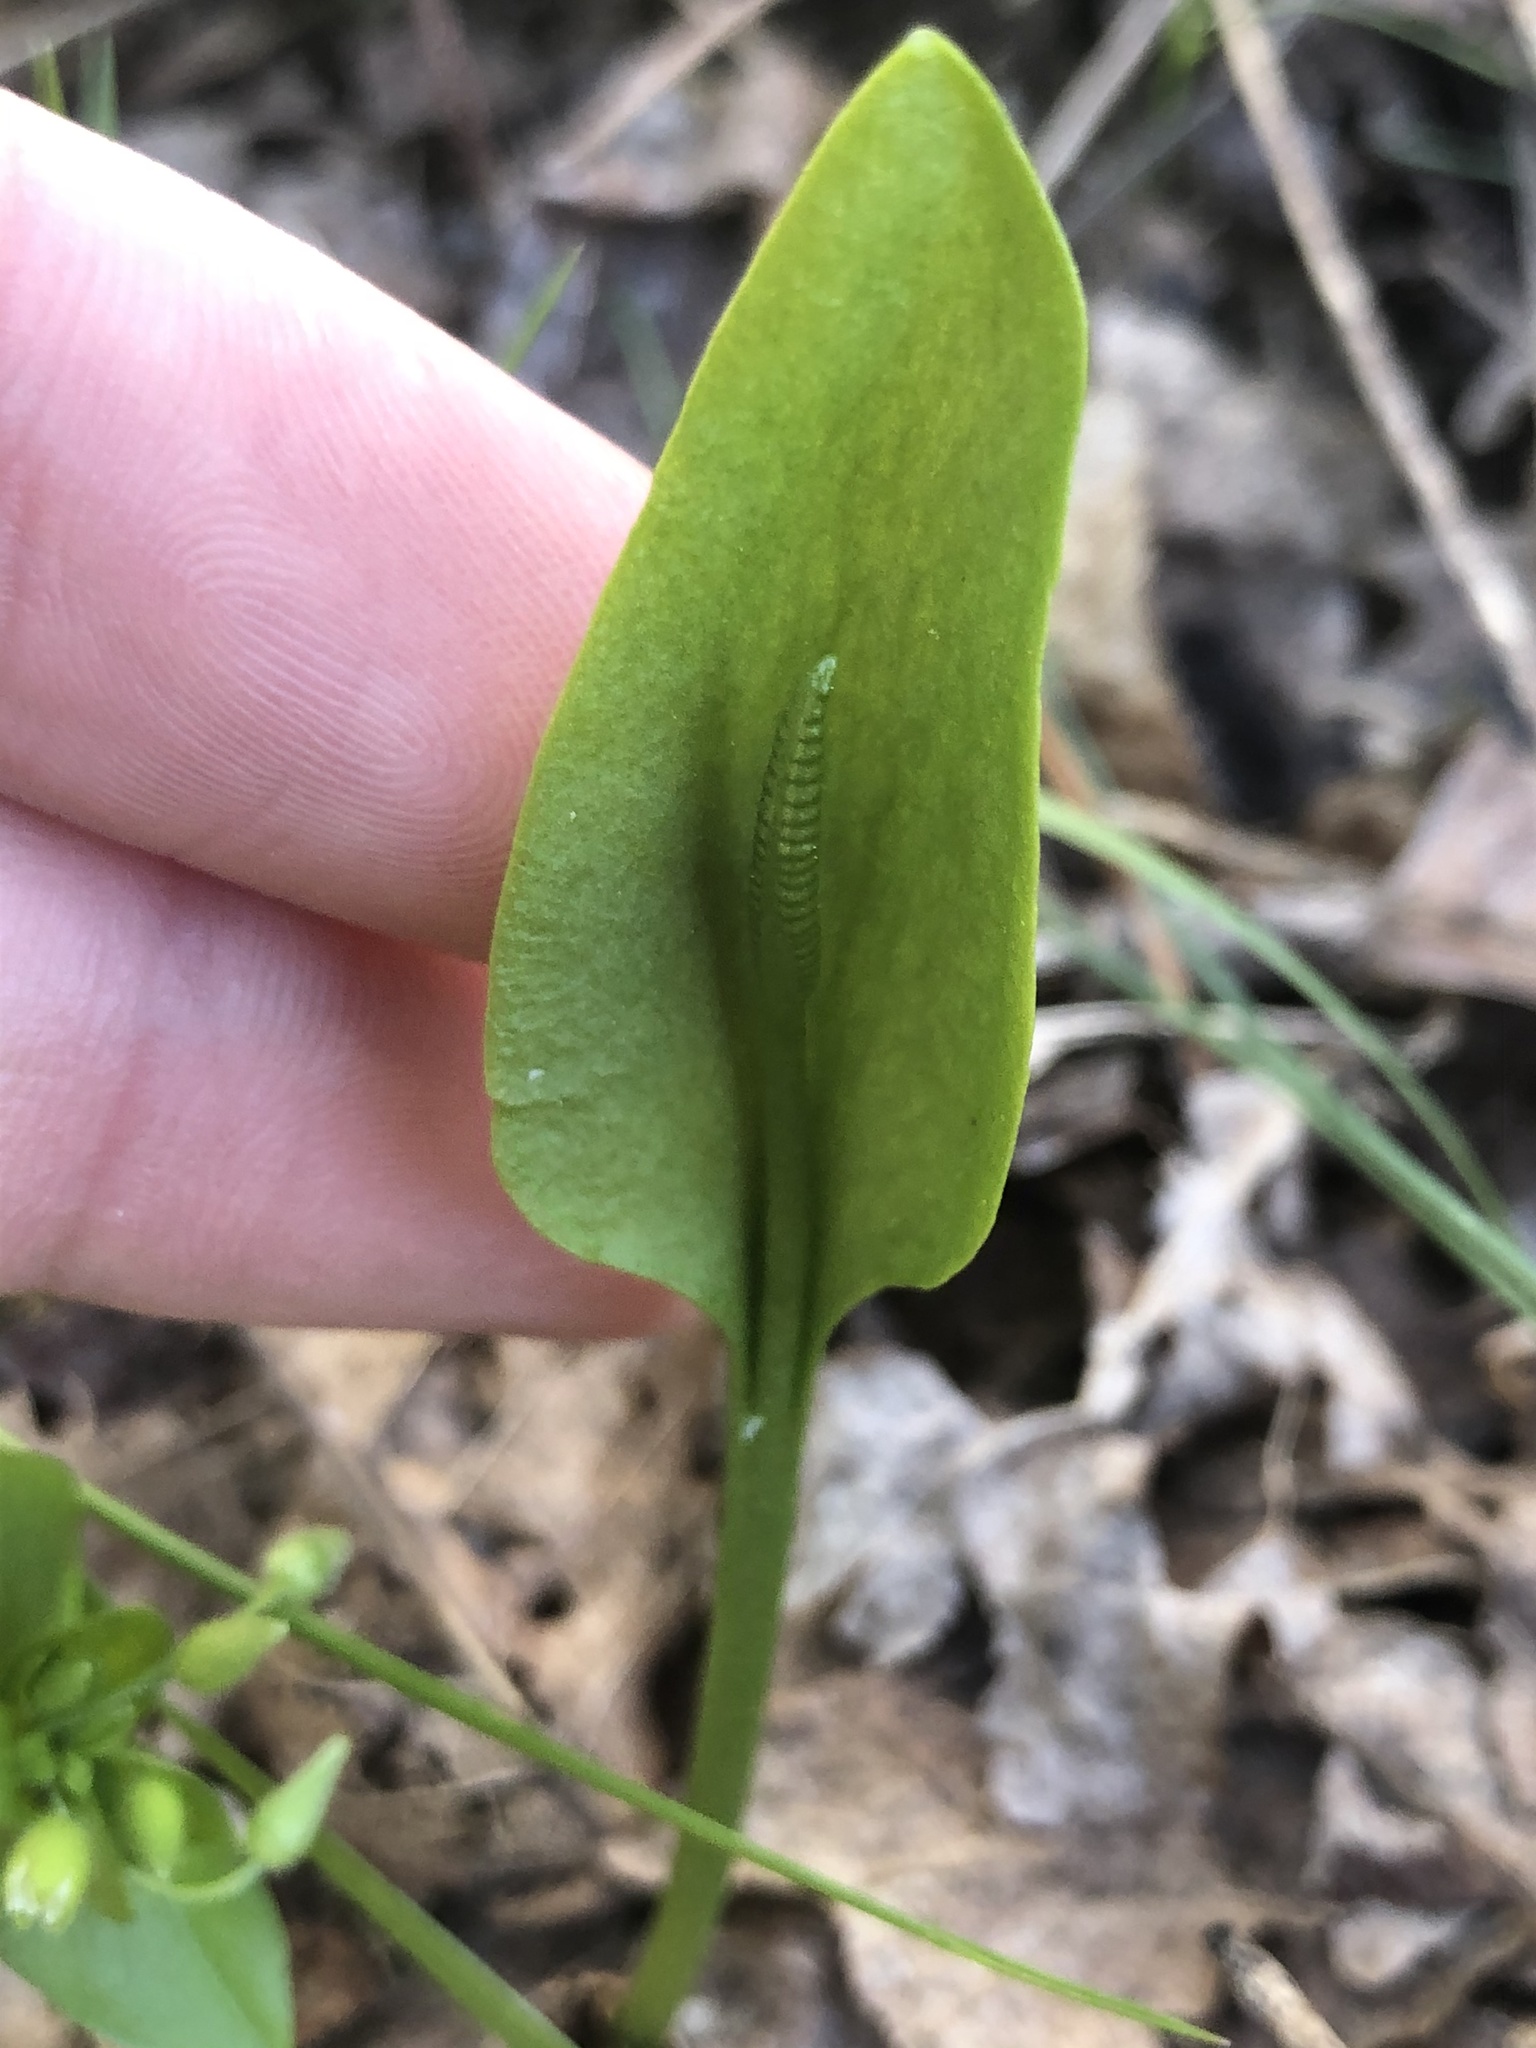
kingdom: Plantae
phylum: Tracheophyta
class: Polypodiopsida
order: Ophioglossales
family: Ophioglossaceae
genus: Ophioglossum
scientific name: Ophioglossum vulgatum
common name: Adder's-tongue
